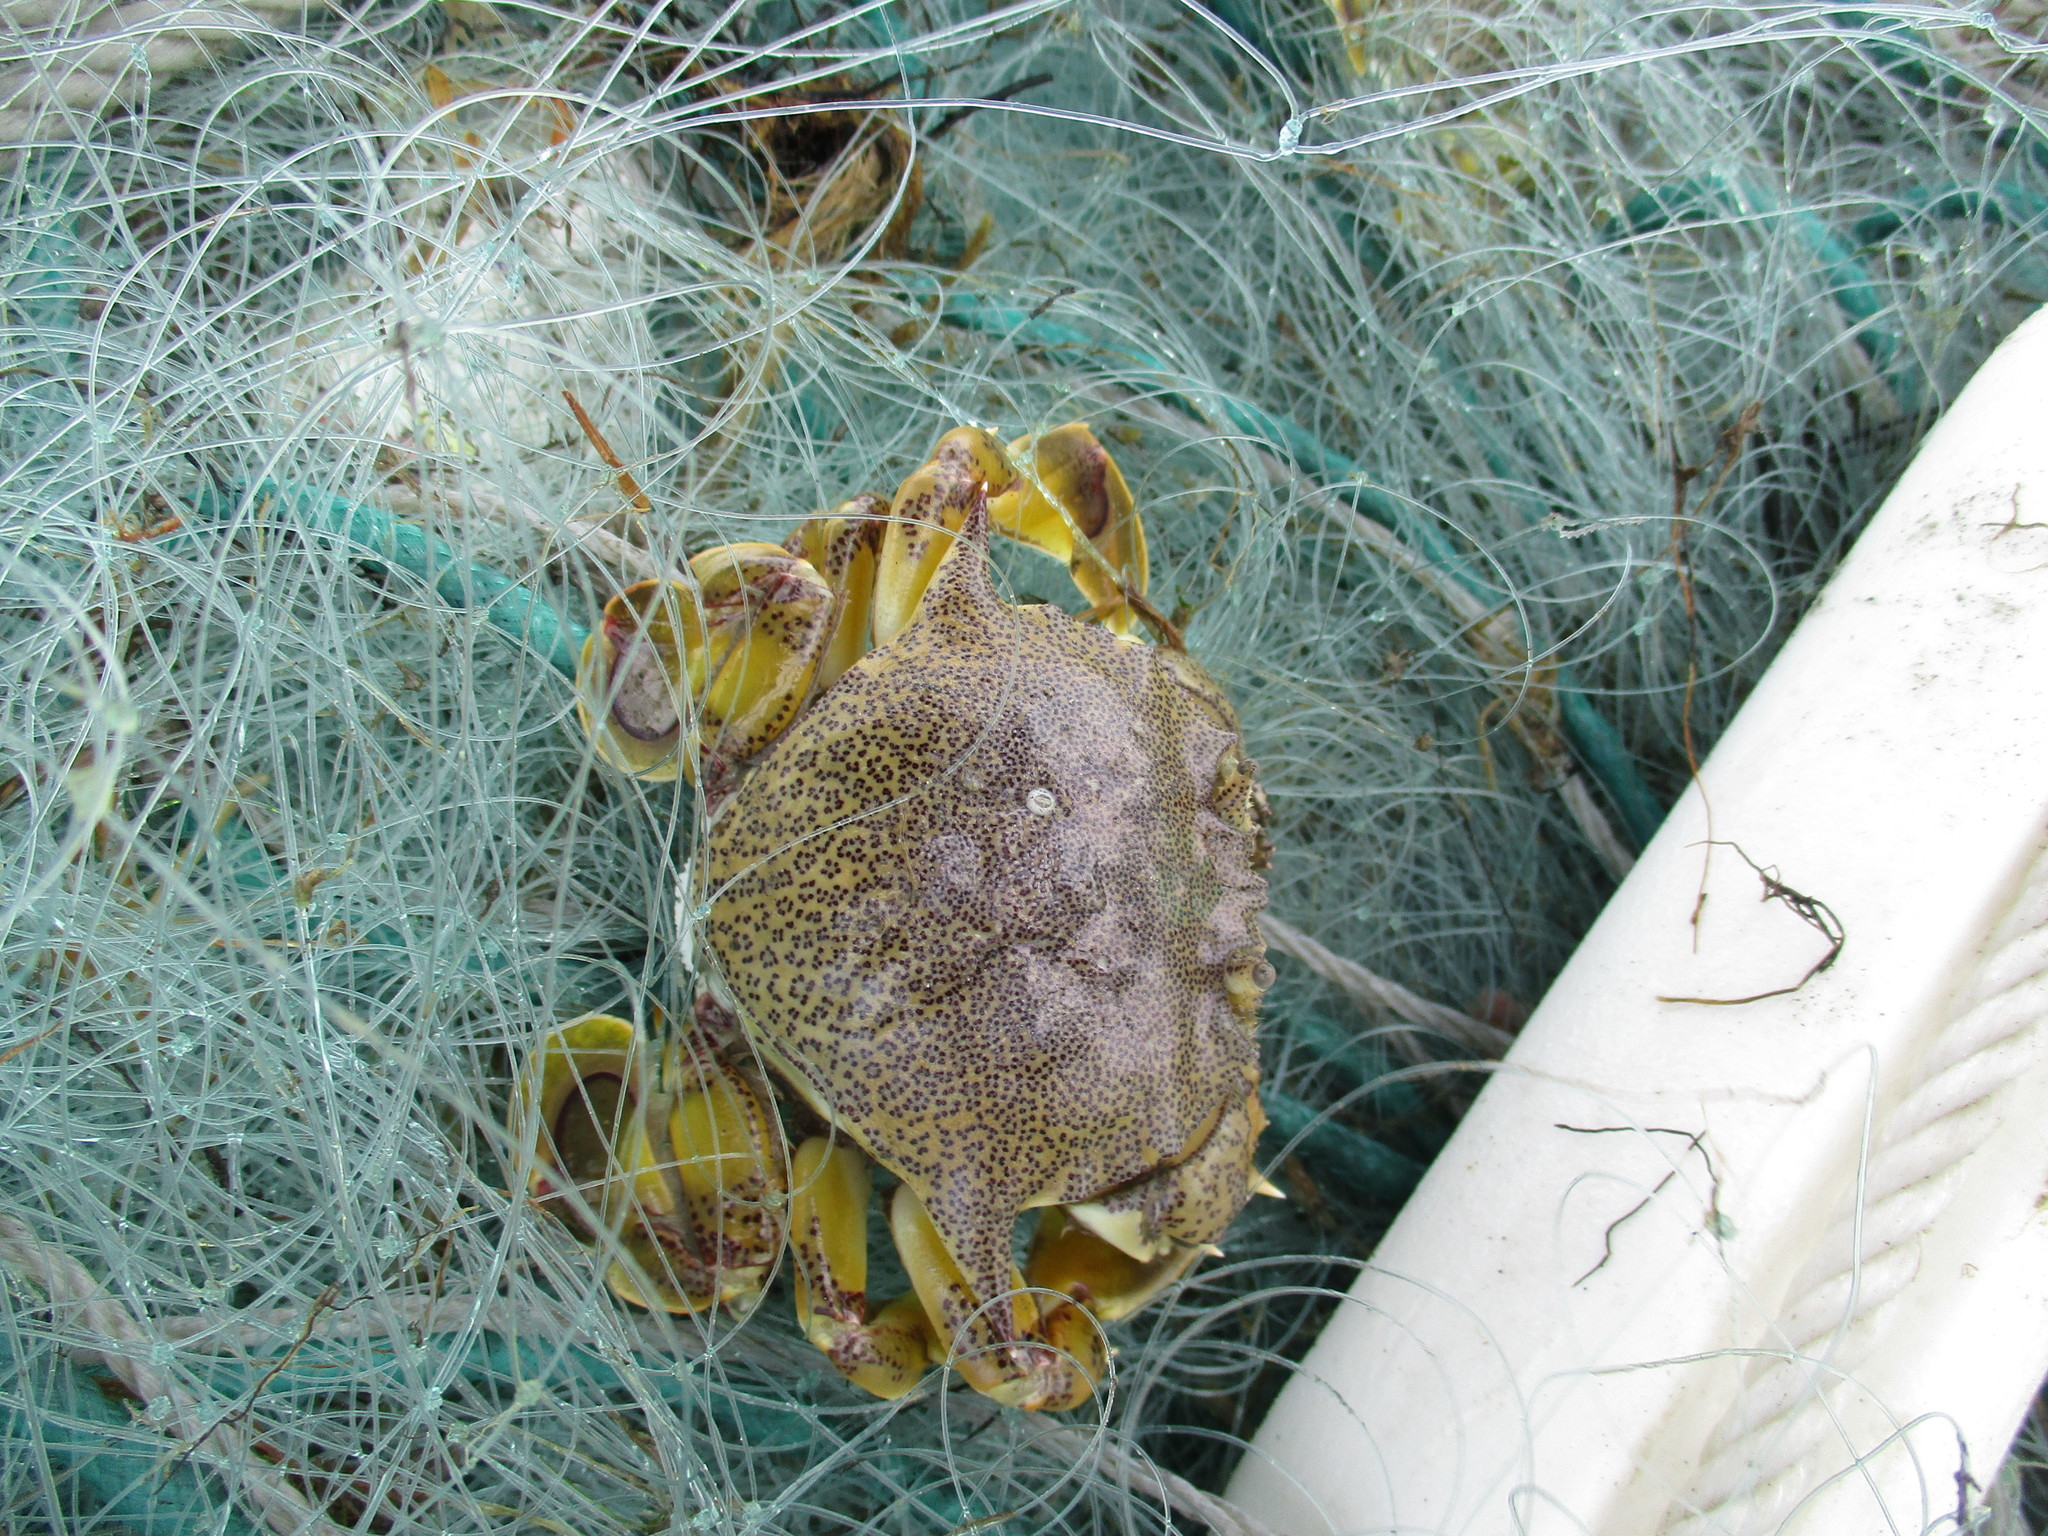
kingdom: Animalia
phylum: Arthropoda
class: Malacostraca
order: Decapoda
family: Matutidae
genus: Matuta
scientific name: Matuta victor
